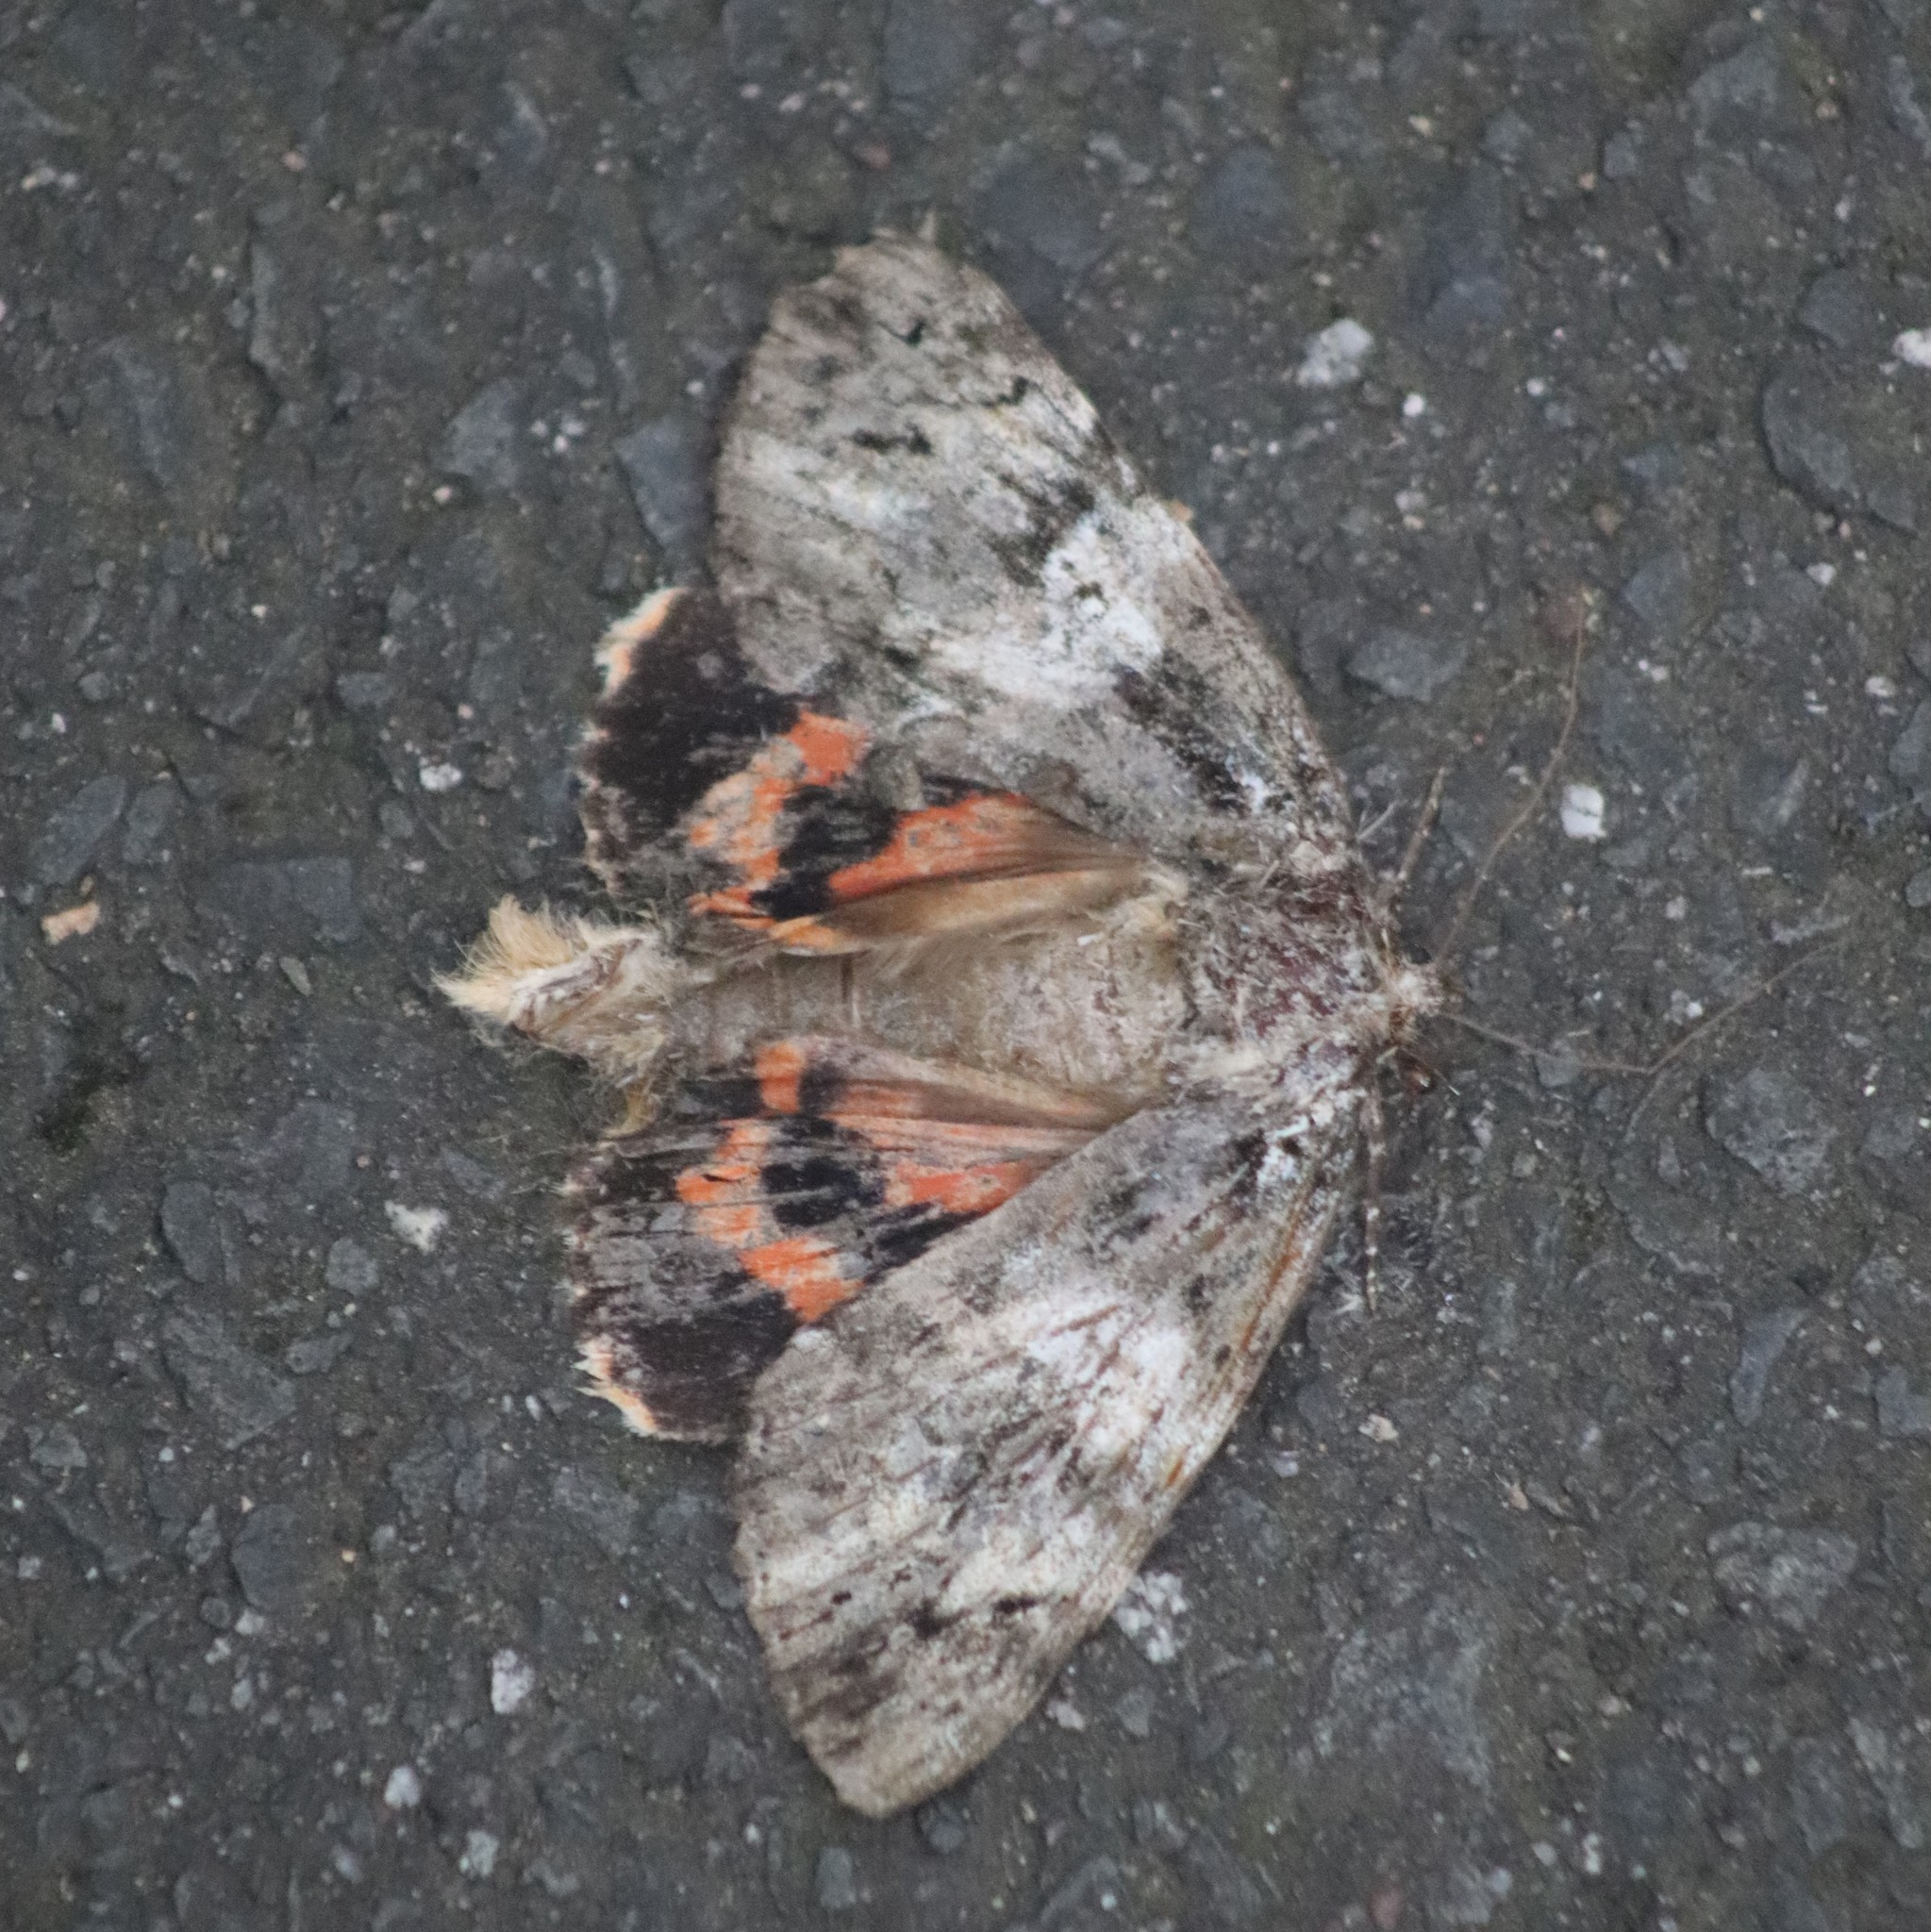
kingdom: Animalia
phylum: Arthropoda
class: Insecta
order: Lepidoptera
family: Erebidae
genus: Catocala
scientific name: Catocala ilia
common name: Ilia underwing
